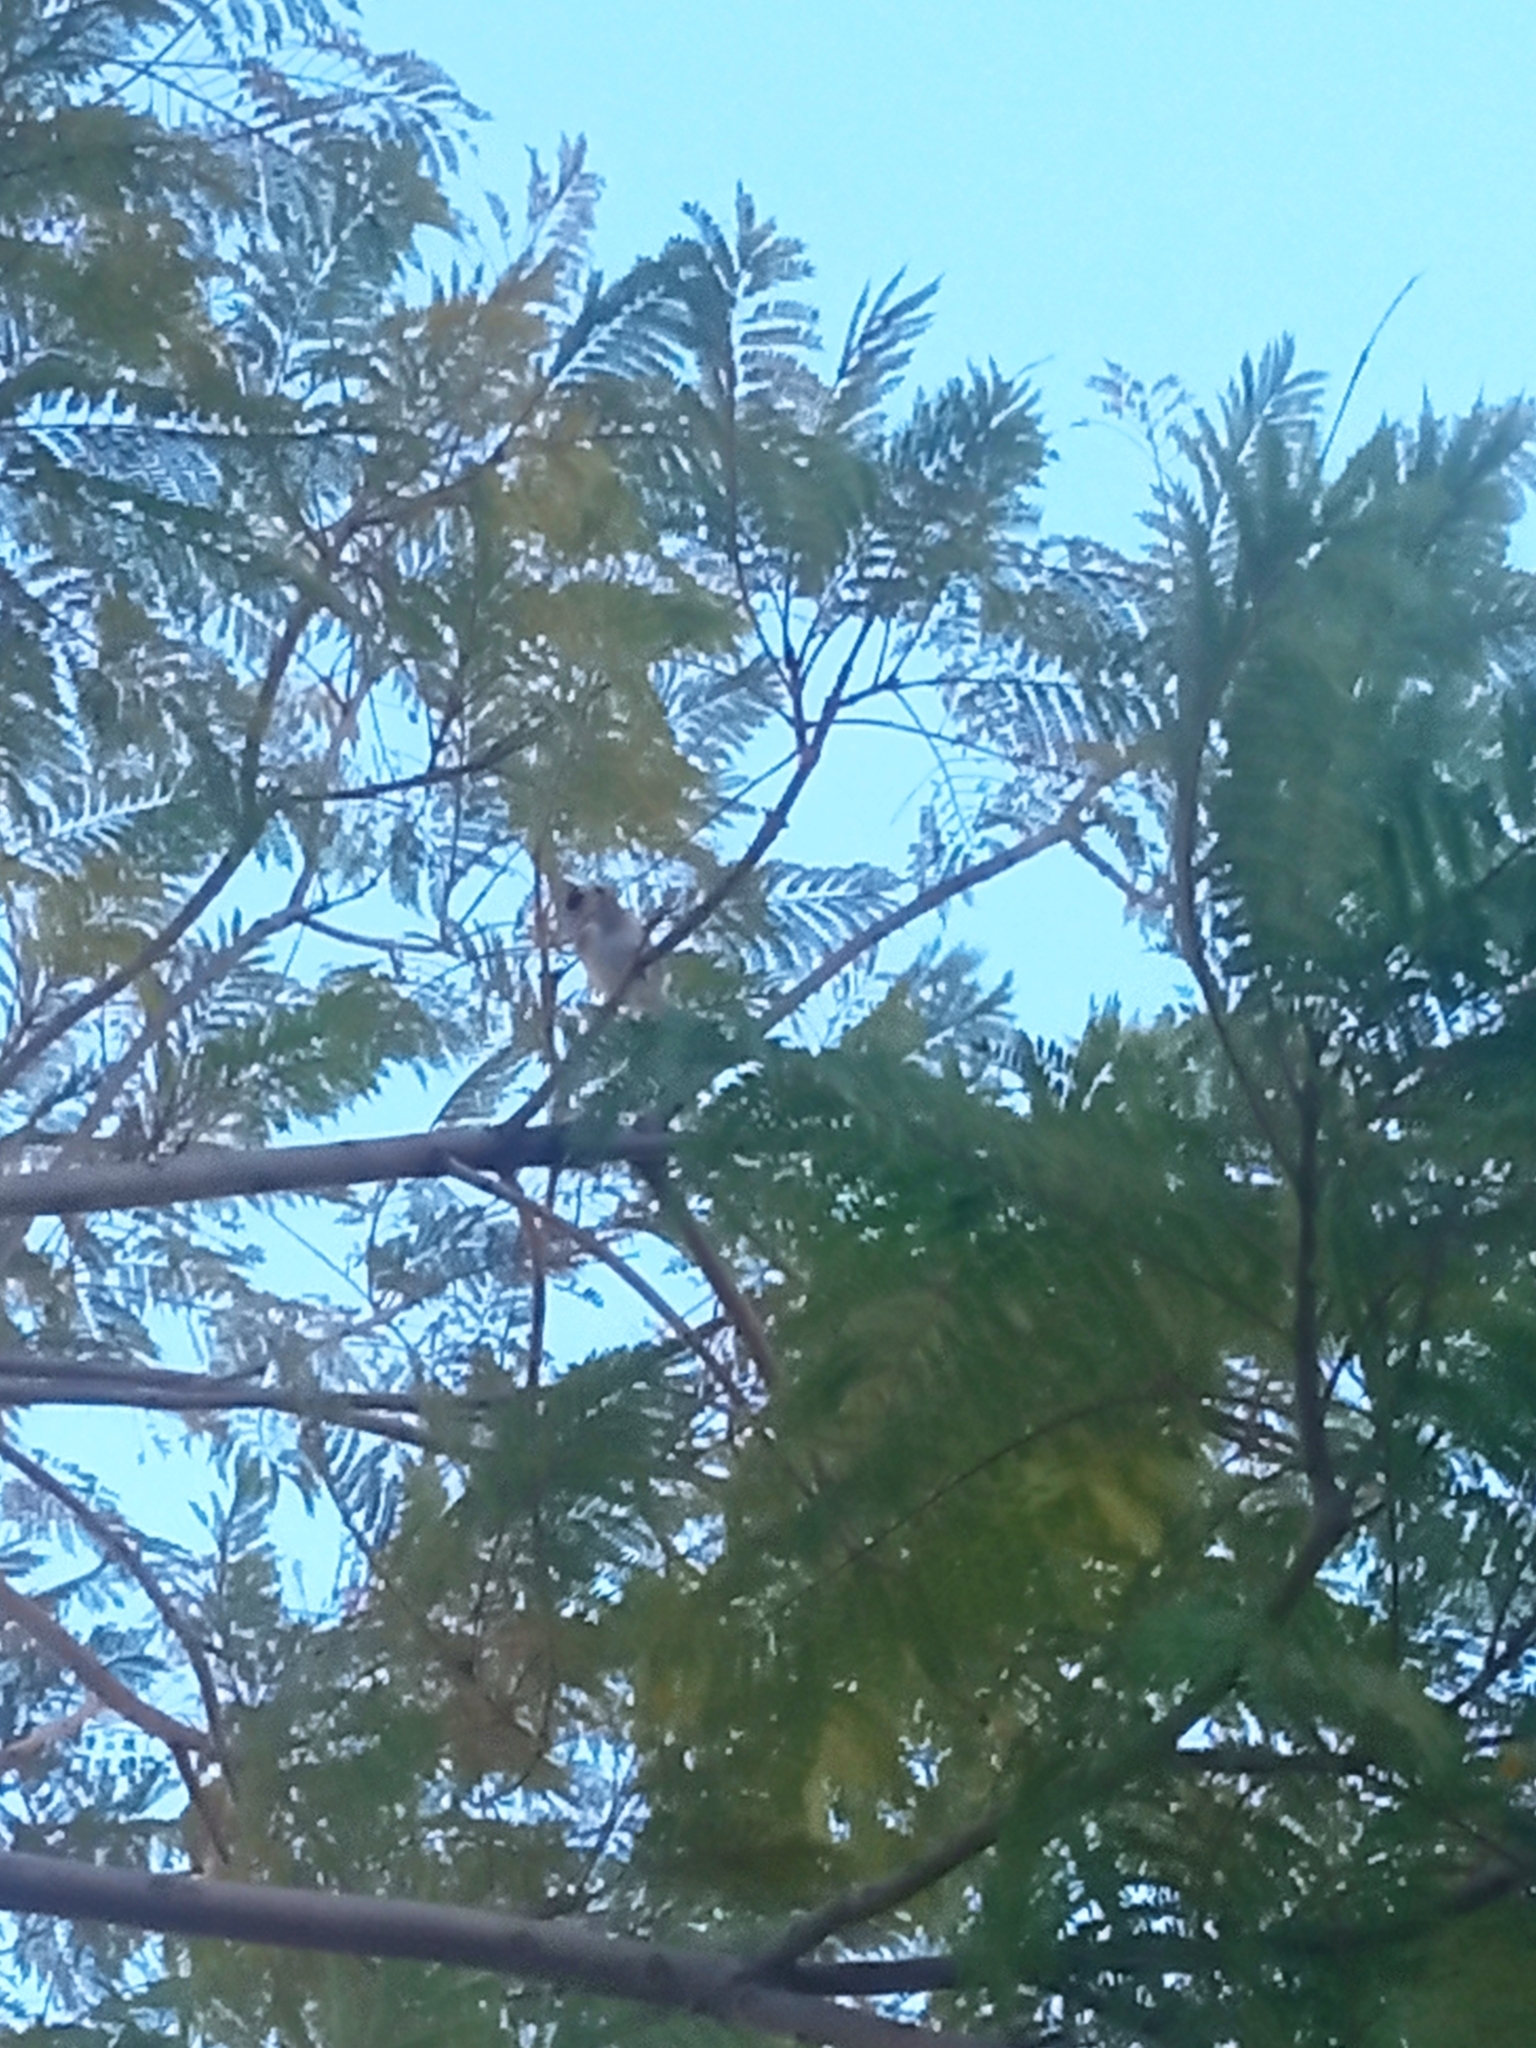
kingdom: Animalia
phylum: Chordata
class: Aves
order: Passeriformes
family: Fringillidae
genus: Carduelis
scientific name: Carduelis carduelis
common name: European goldfinch
